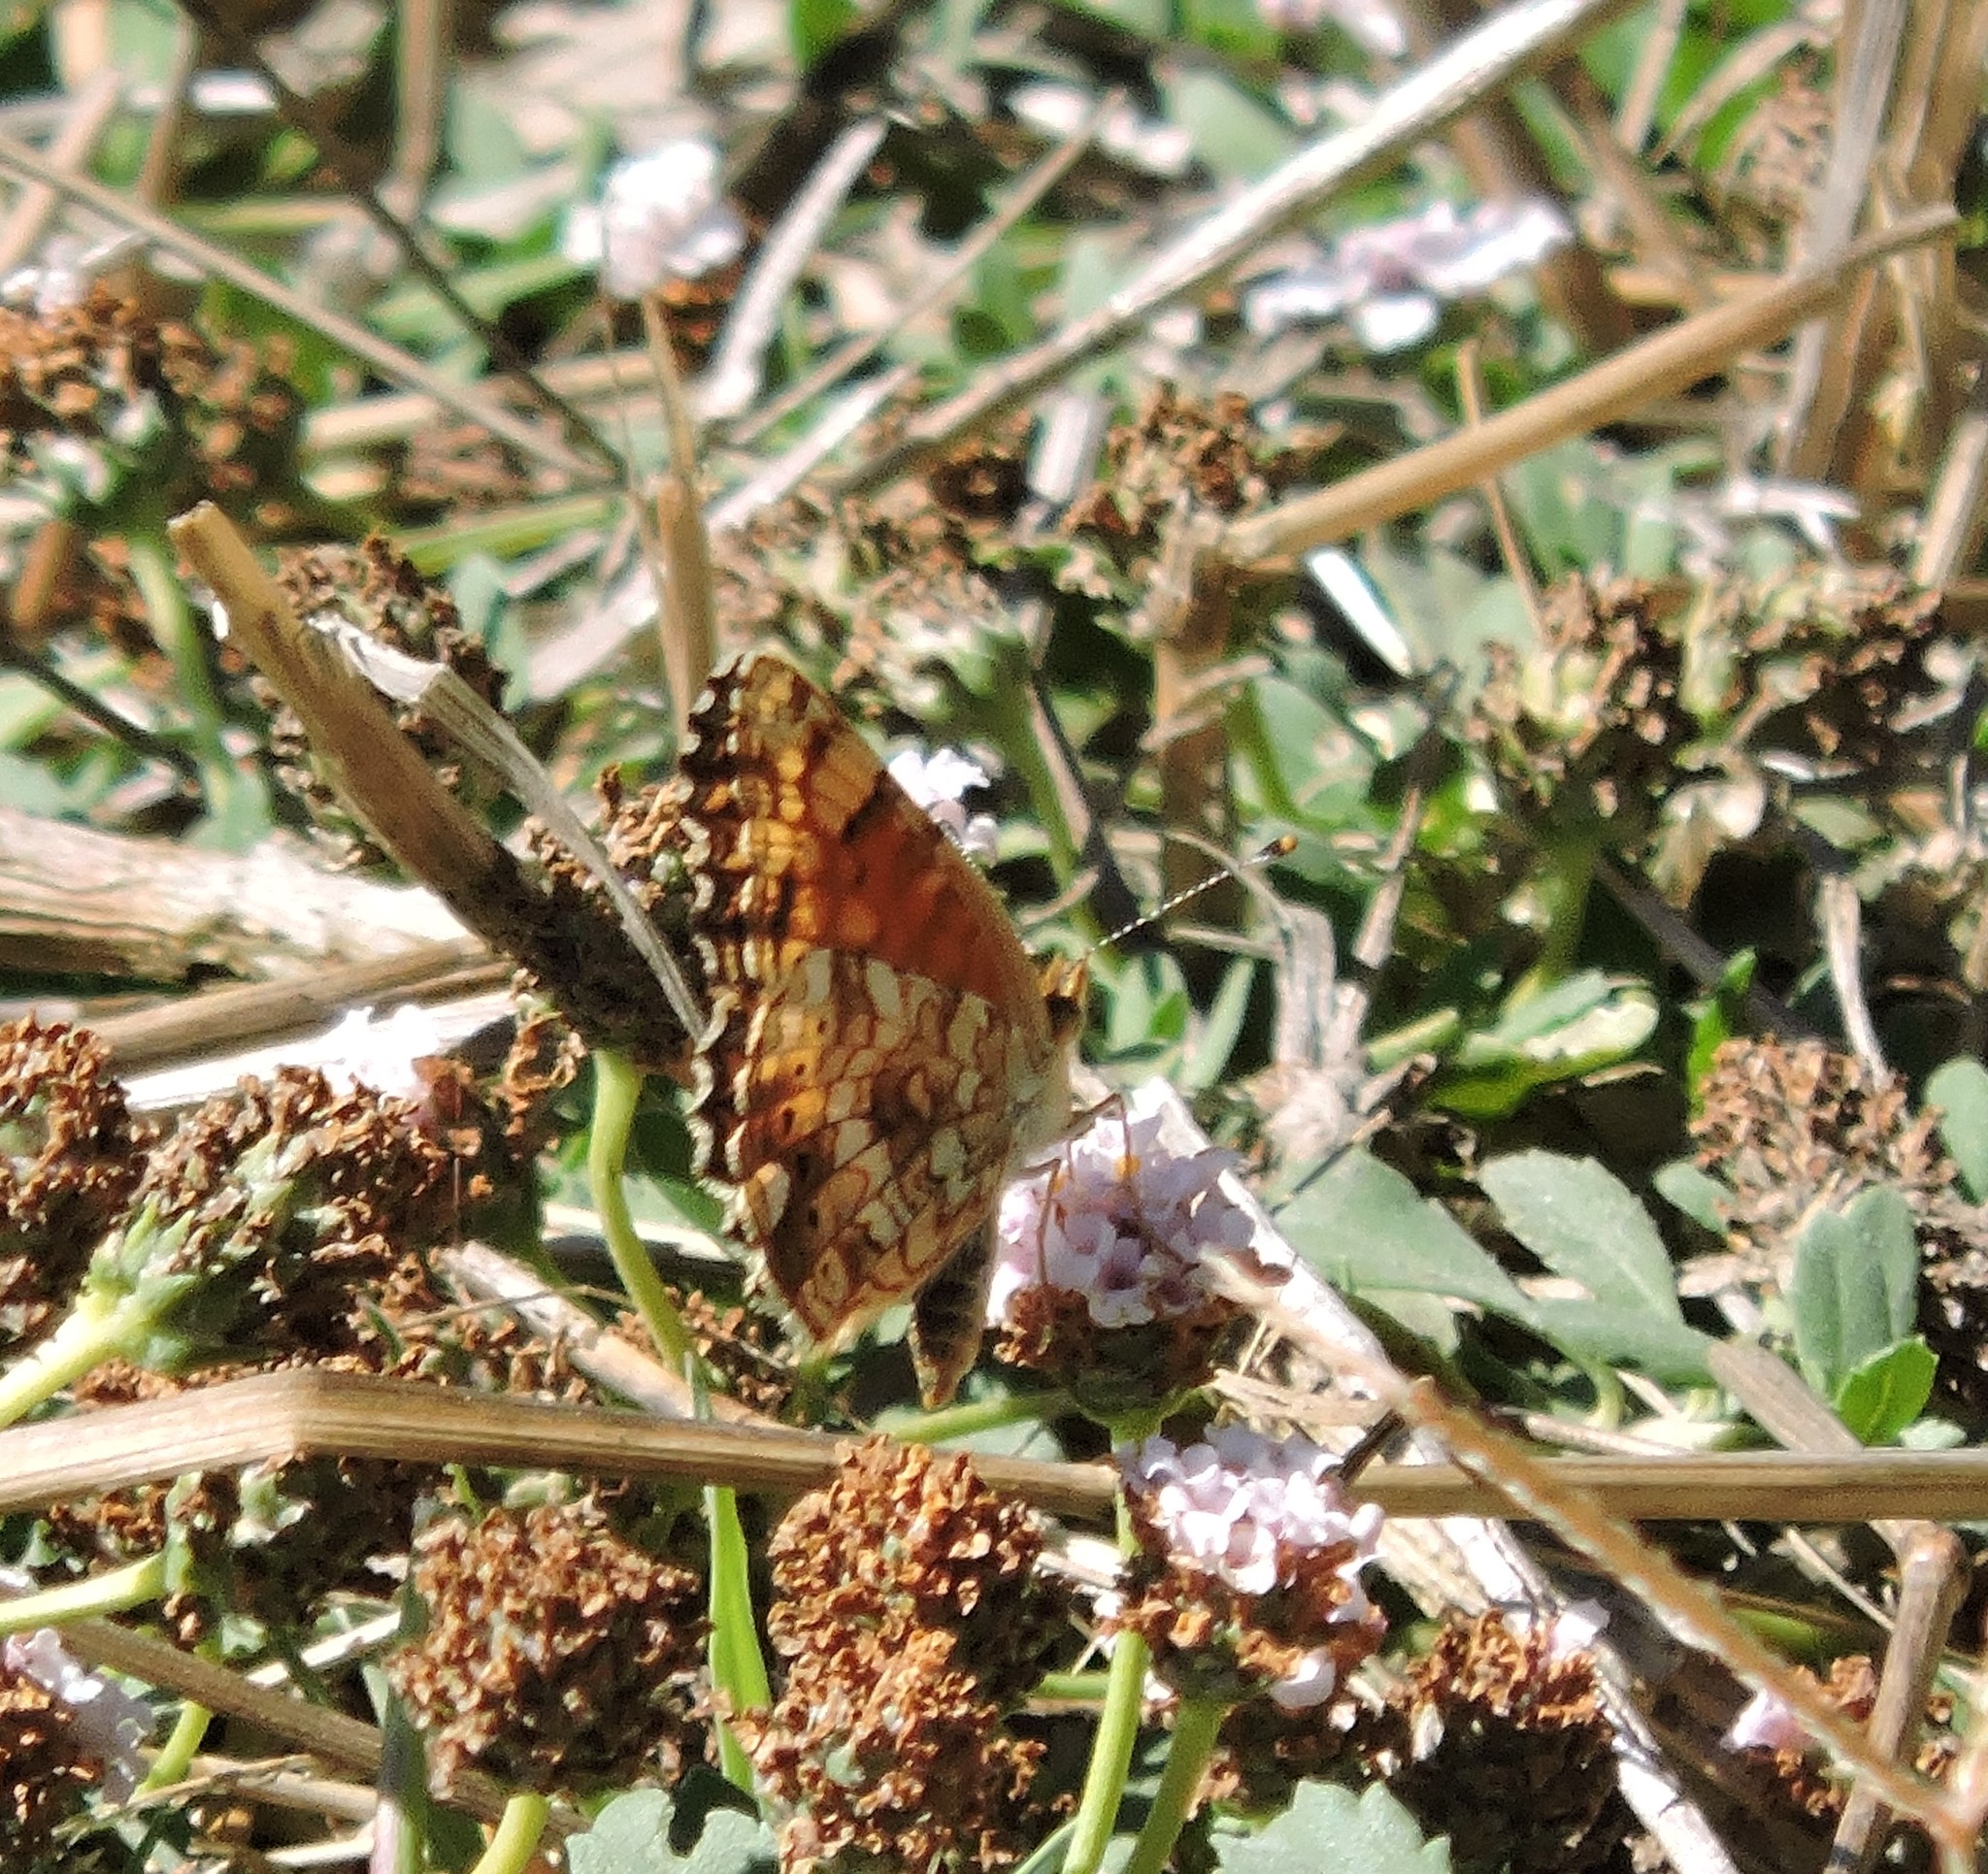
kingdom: Animalia
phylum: Arthropoda
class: Insecta
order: Lepidoptera
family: Nymphalidae
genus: Eresia
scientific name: Eresia aveyrona
